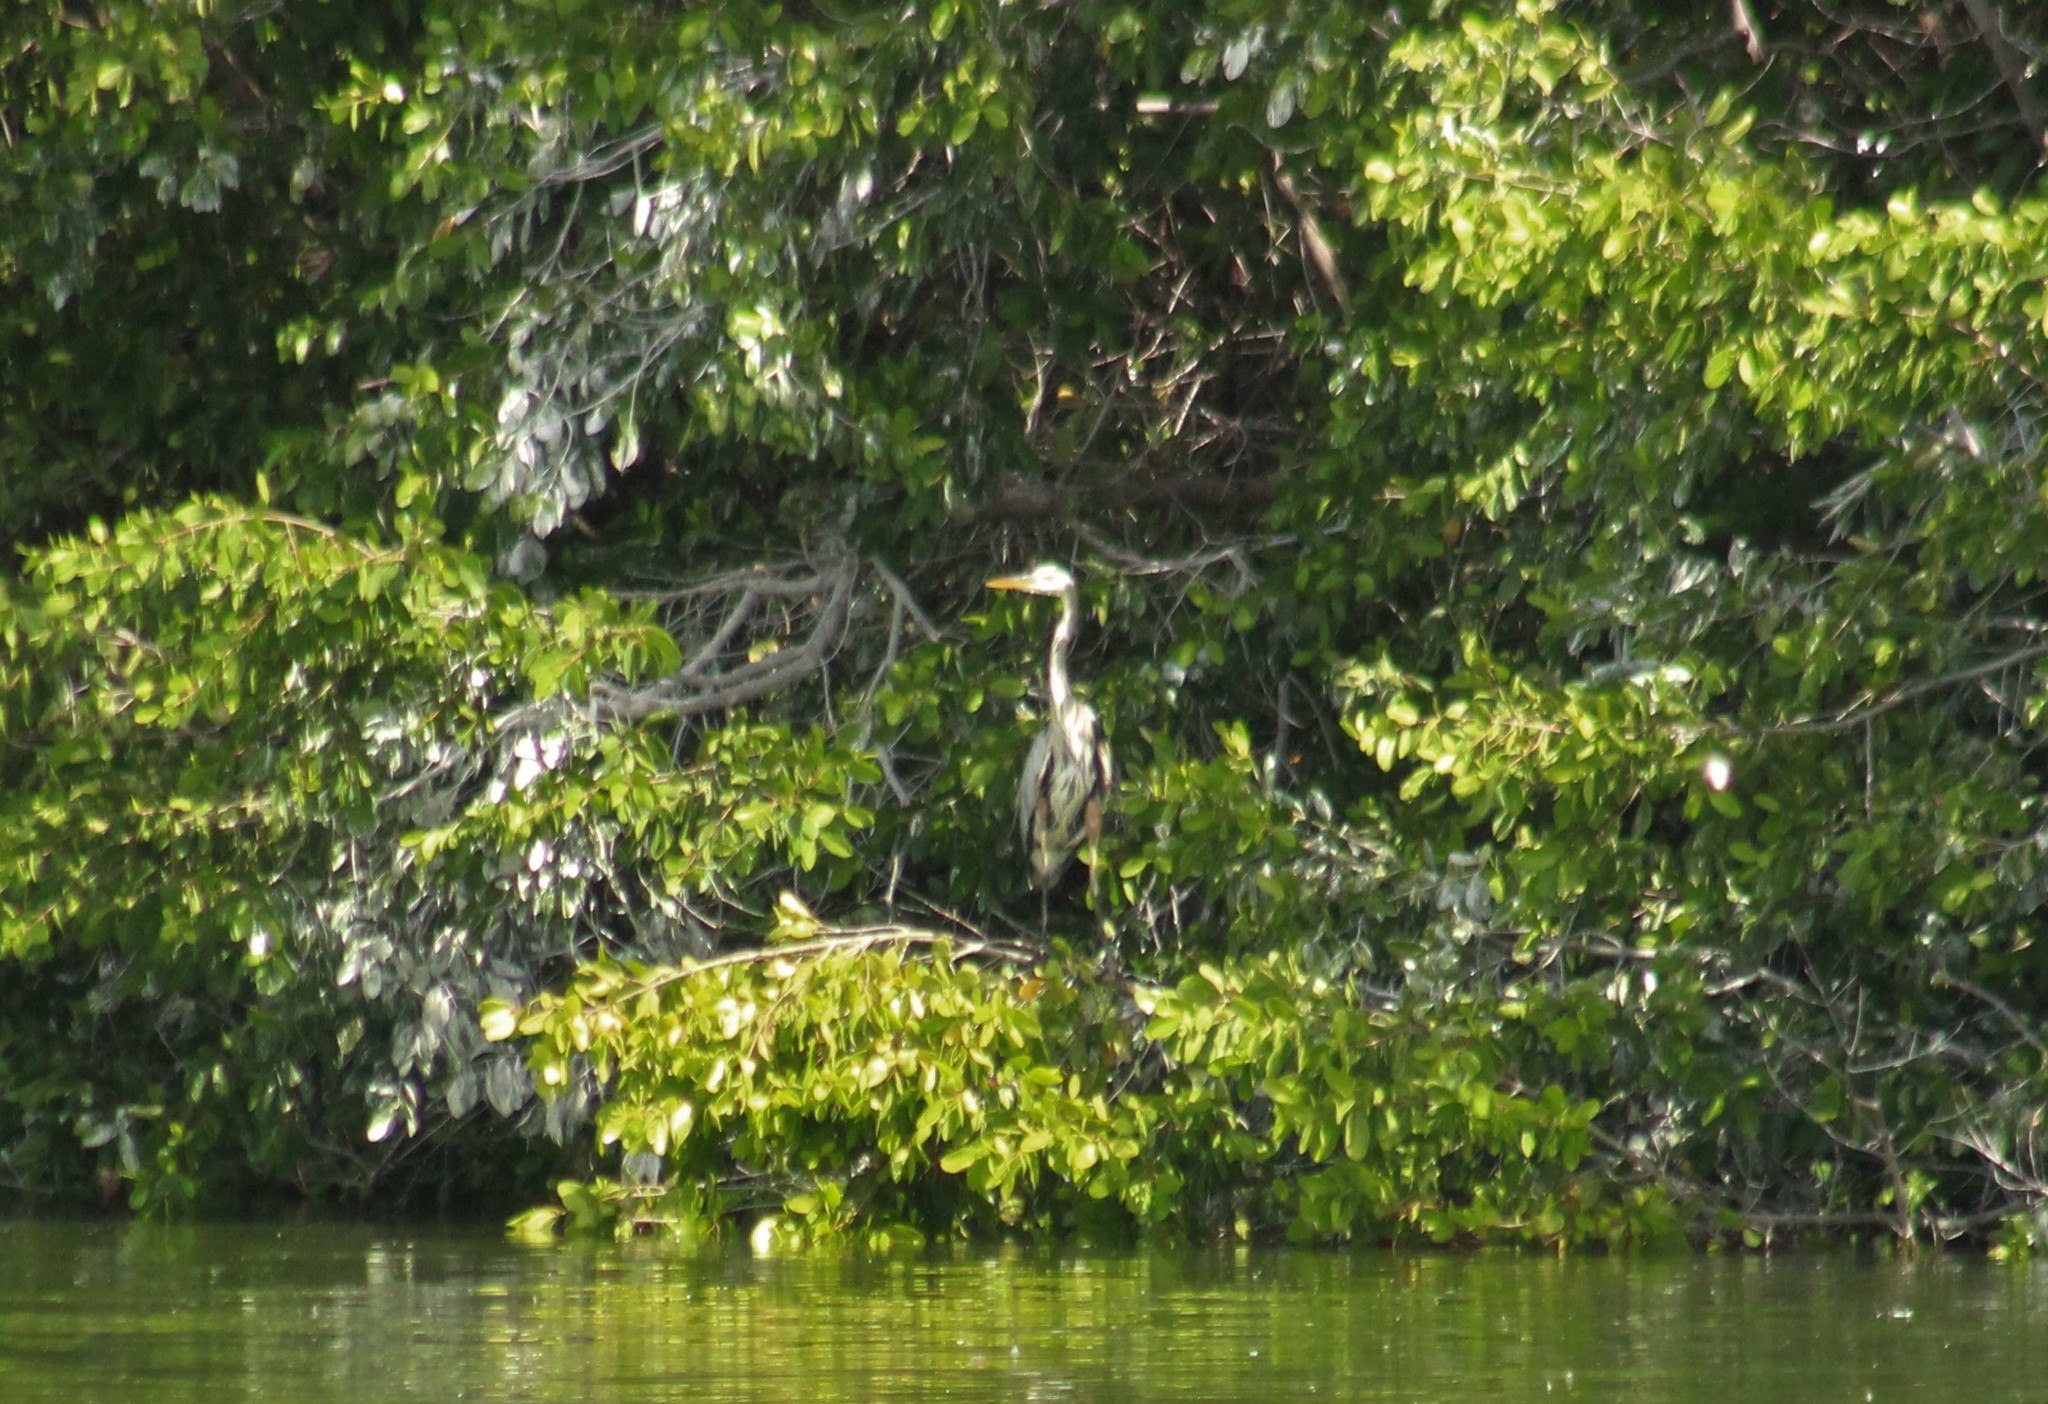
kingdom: Animalia
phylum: Chordata
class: Aves
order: Pelecaniformes
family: Ardeidae
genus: Ardea
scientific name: Ardea herodias
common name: Great blue heron
